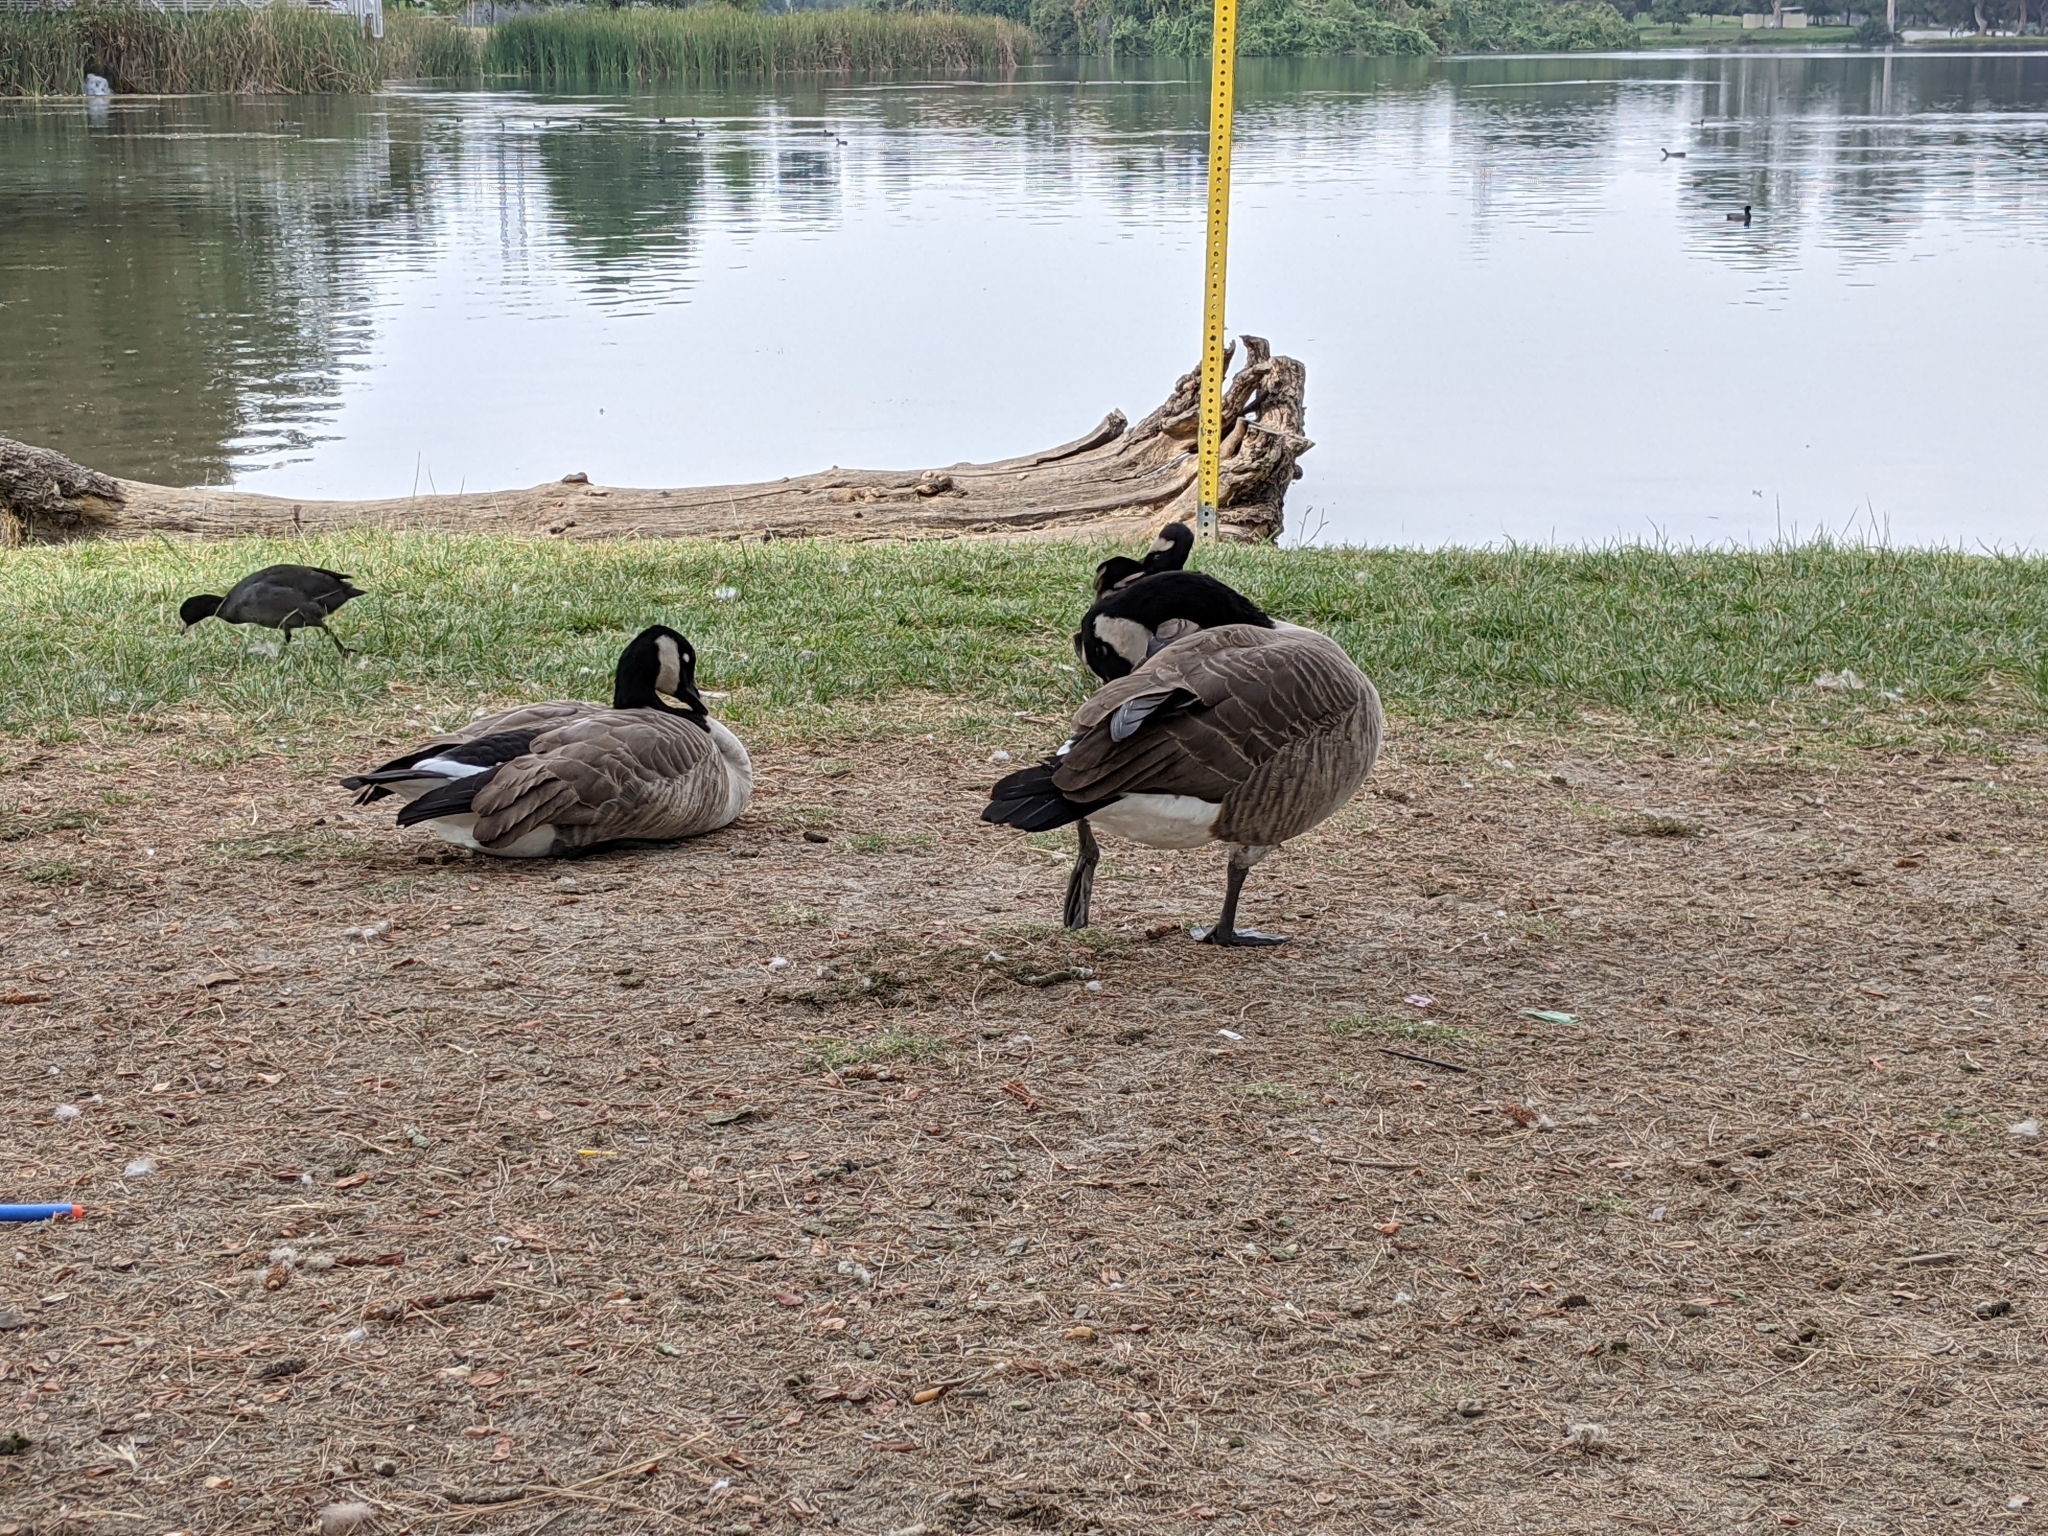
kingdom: Animalia
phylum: Chordata
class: Aves
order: Anseriformes
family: Anatidae
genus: Branta
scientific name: Branta canadensis
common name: Canada goose
